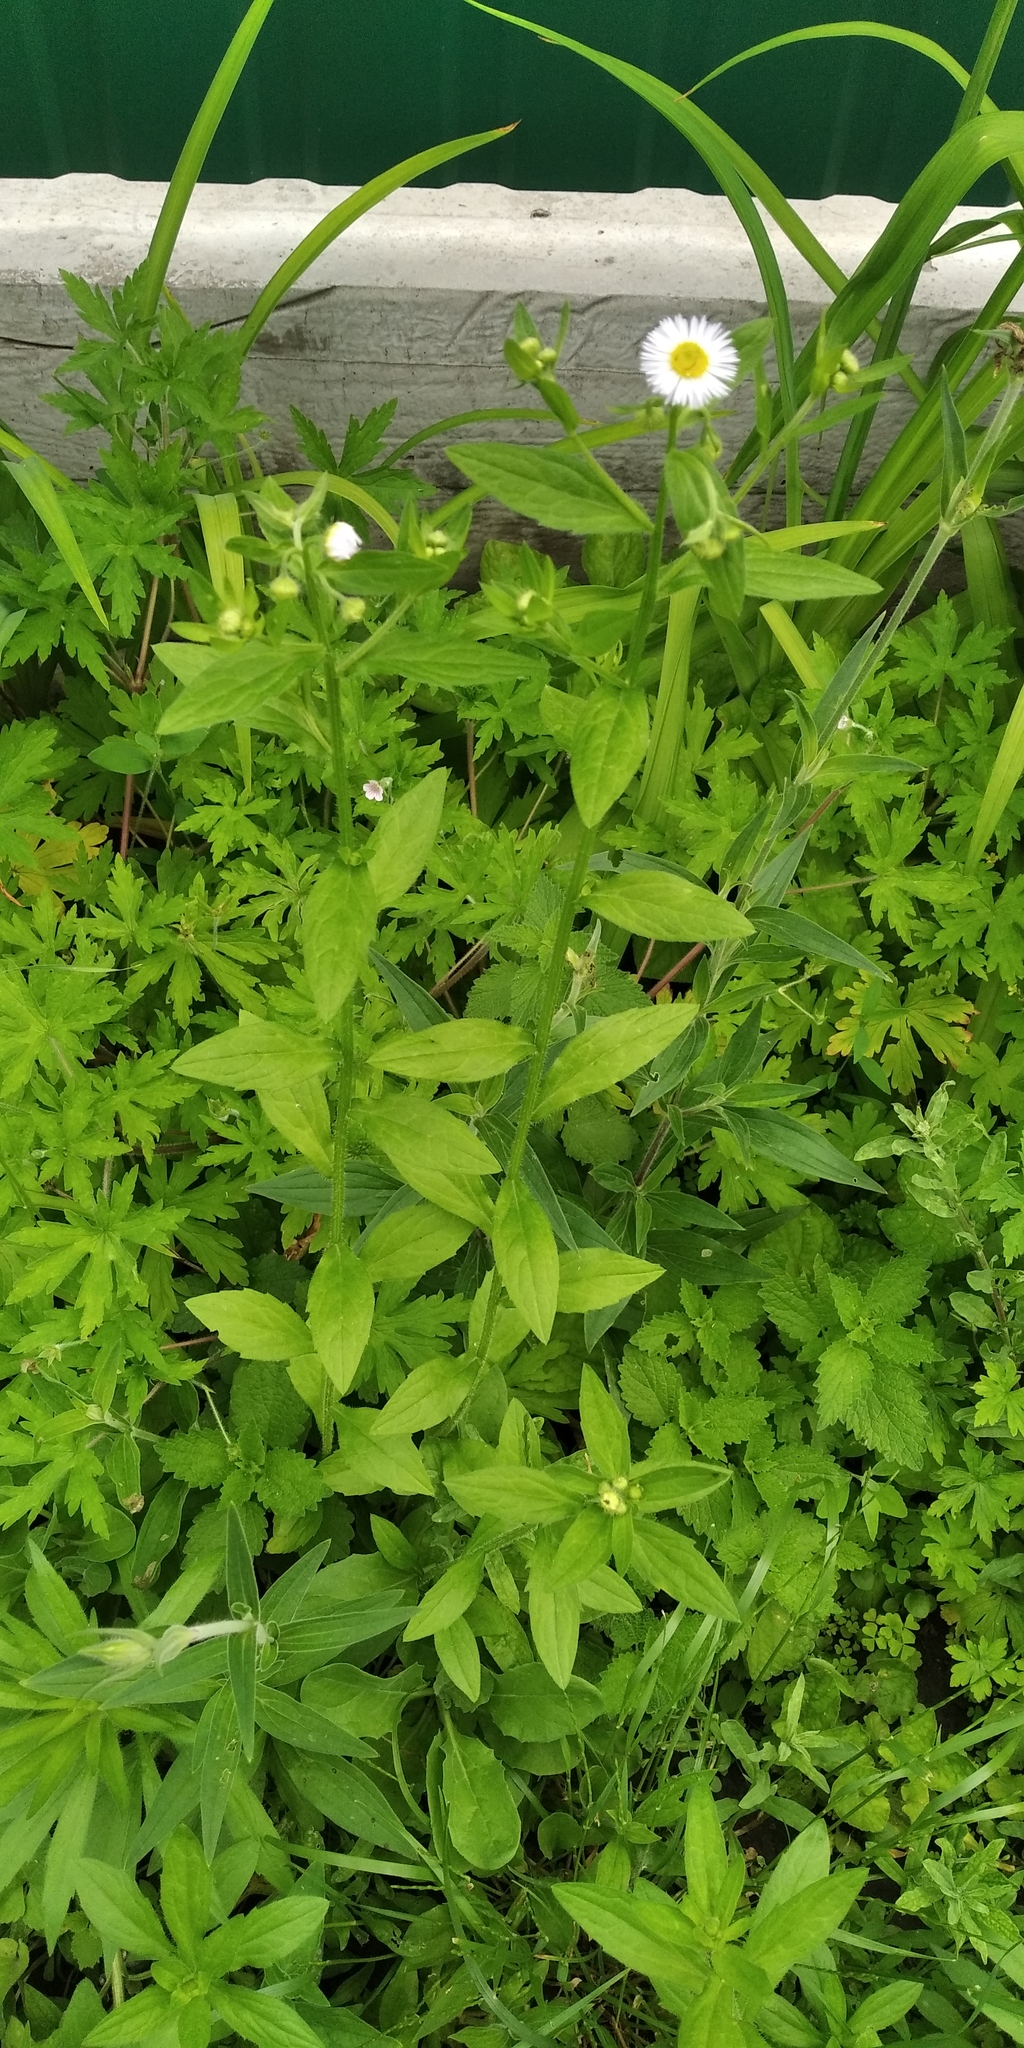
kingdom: Plantae
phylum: Tracheophyta
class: Magnoliopsida
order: Asterales
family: Asteraceae
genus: Erigeron
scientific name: Erigeron annuus
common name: Tall fleabane
